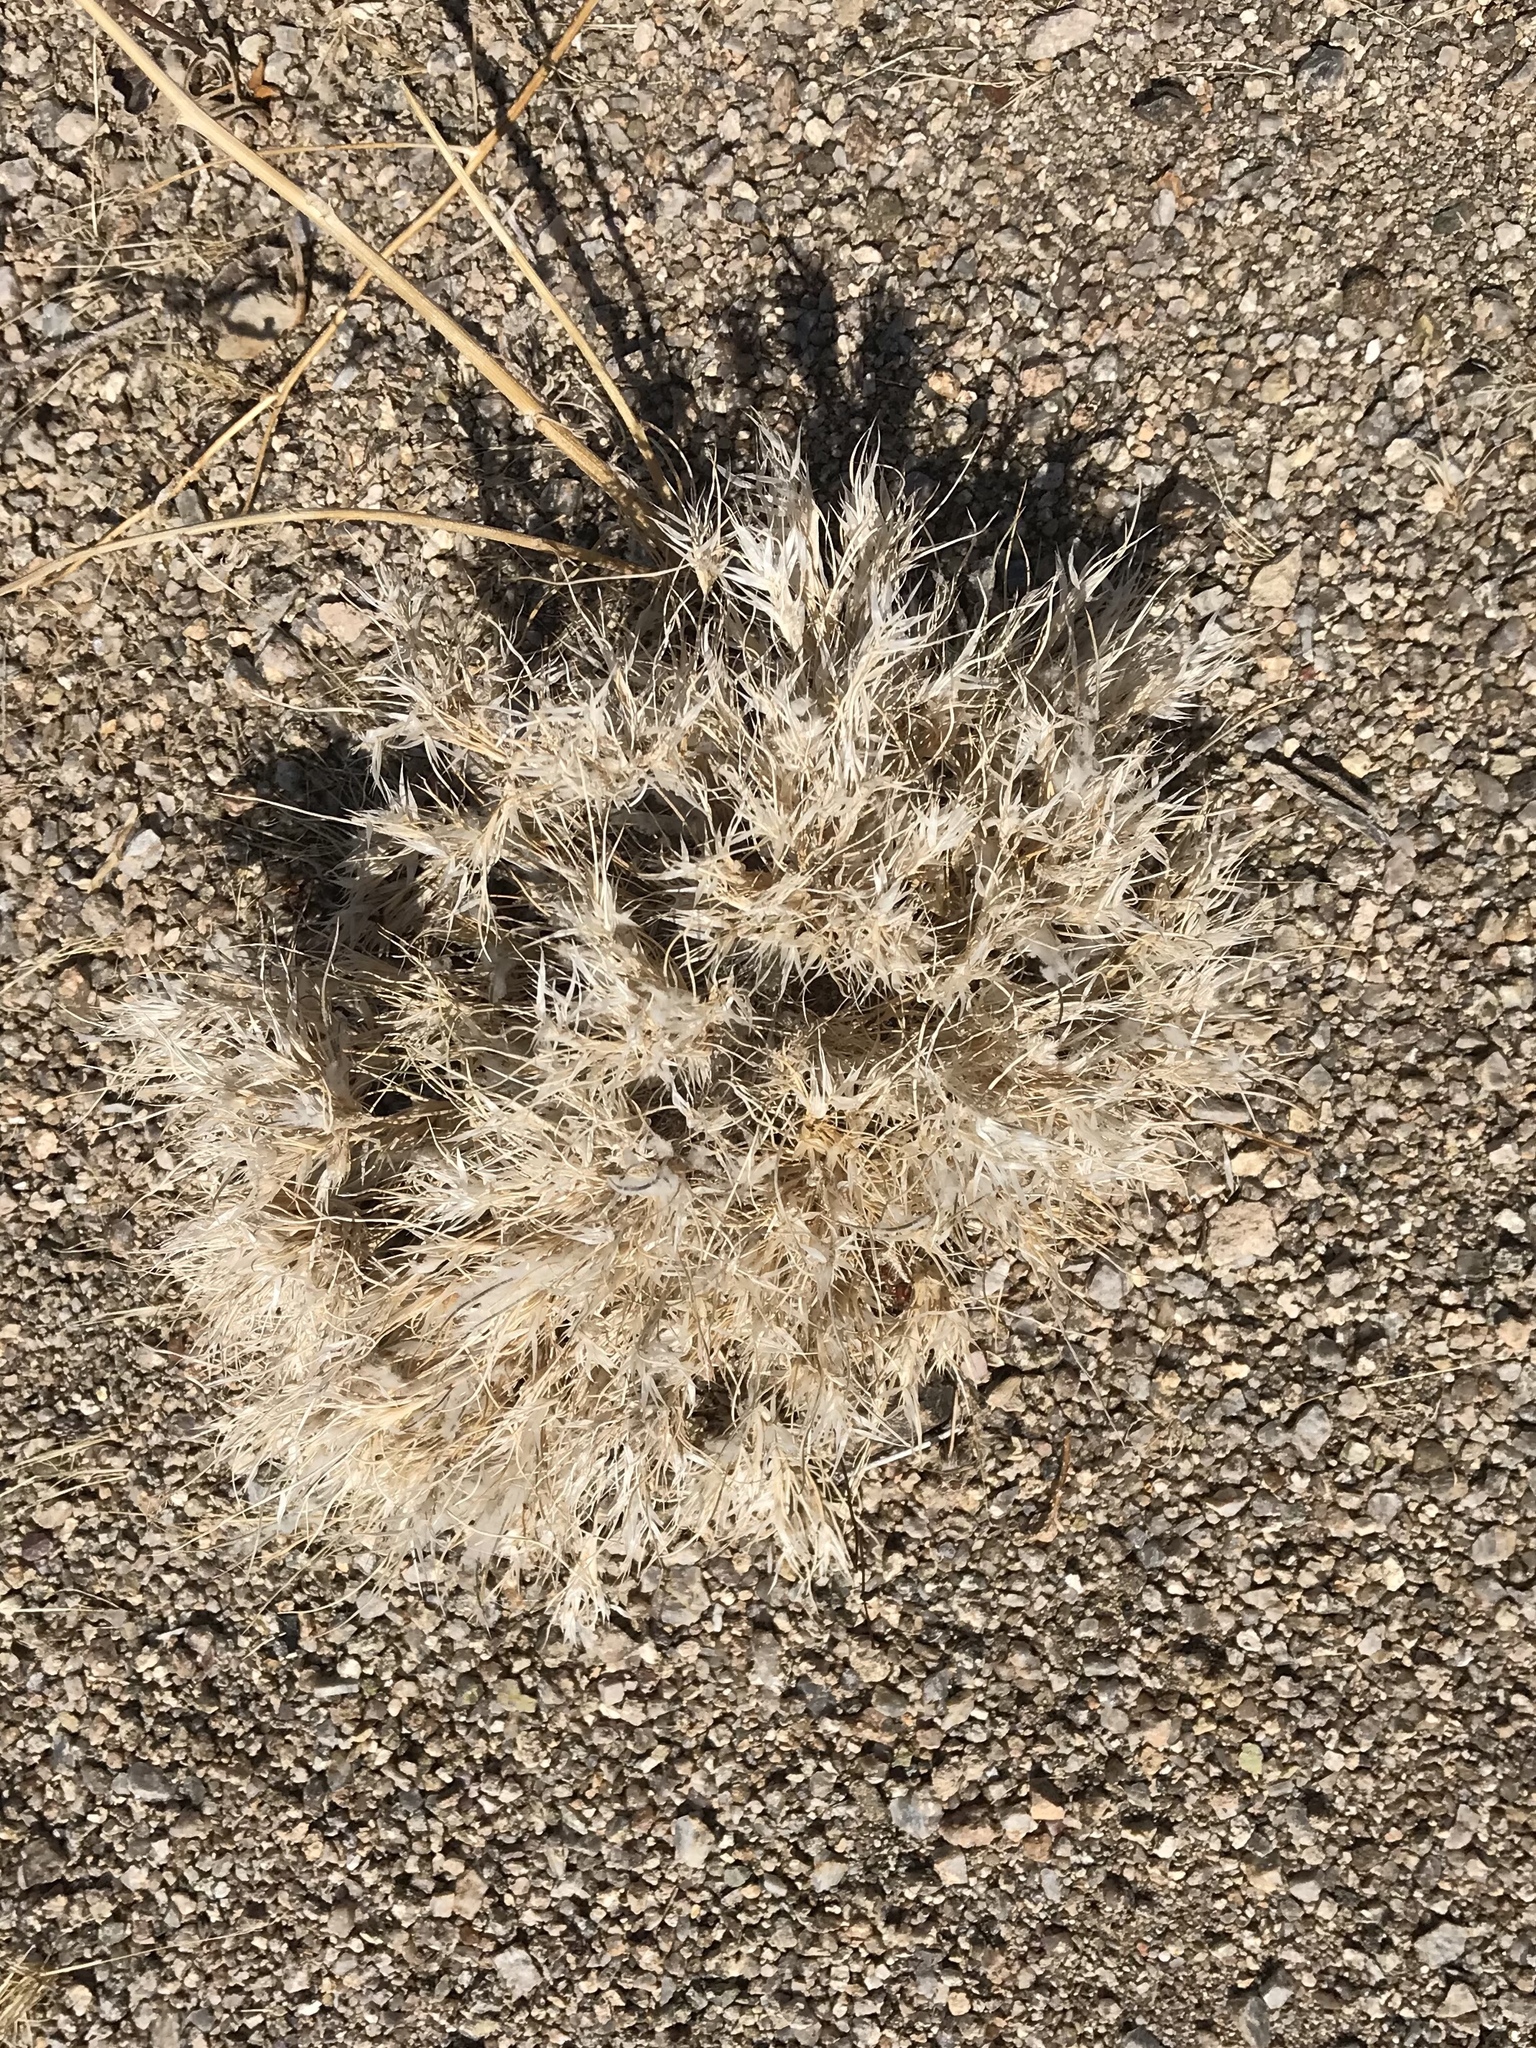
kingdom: Plantae
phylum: Tracheophyta
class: Liliopsida
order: Poales
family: Poaceae
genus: Dasyochloa
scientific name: Dasyochloa pulchella
